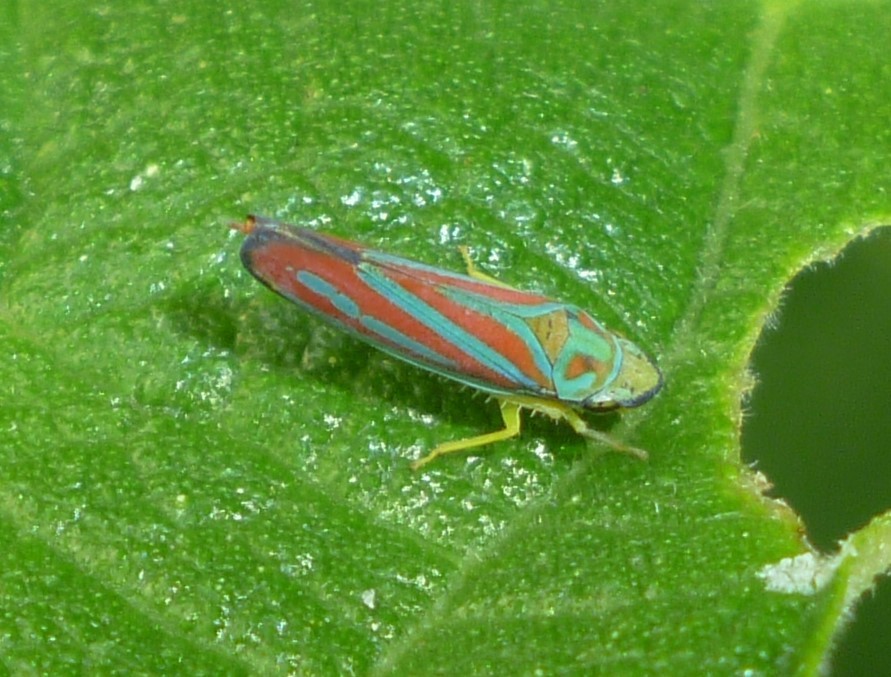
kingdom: Animalia
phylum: Arthropoda
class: Insecta
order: Hemiptera
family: Cicadellidae
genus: Graphocephala
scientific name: Graphocephala coccinea
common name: Candy-striped leafhopper
